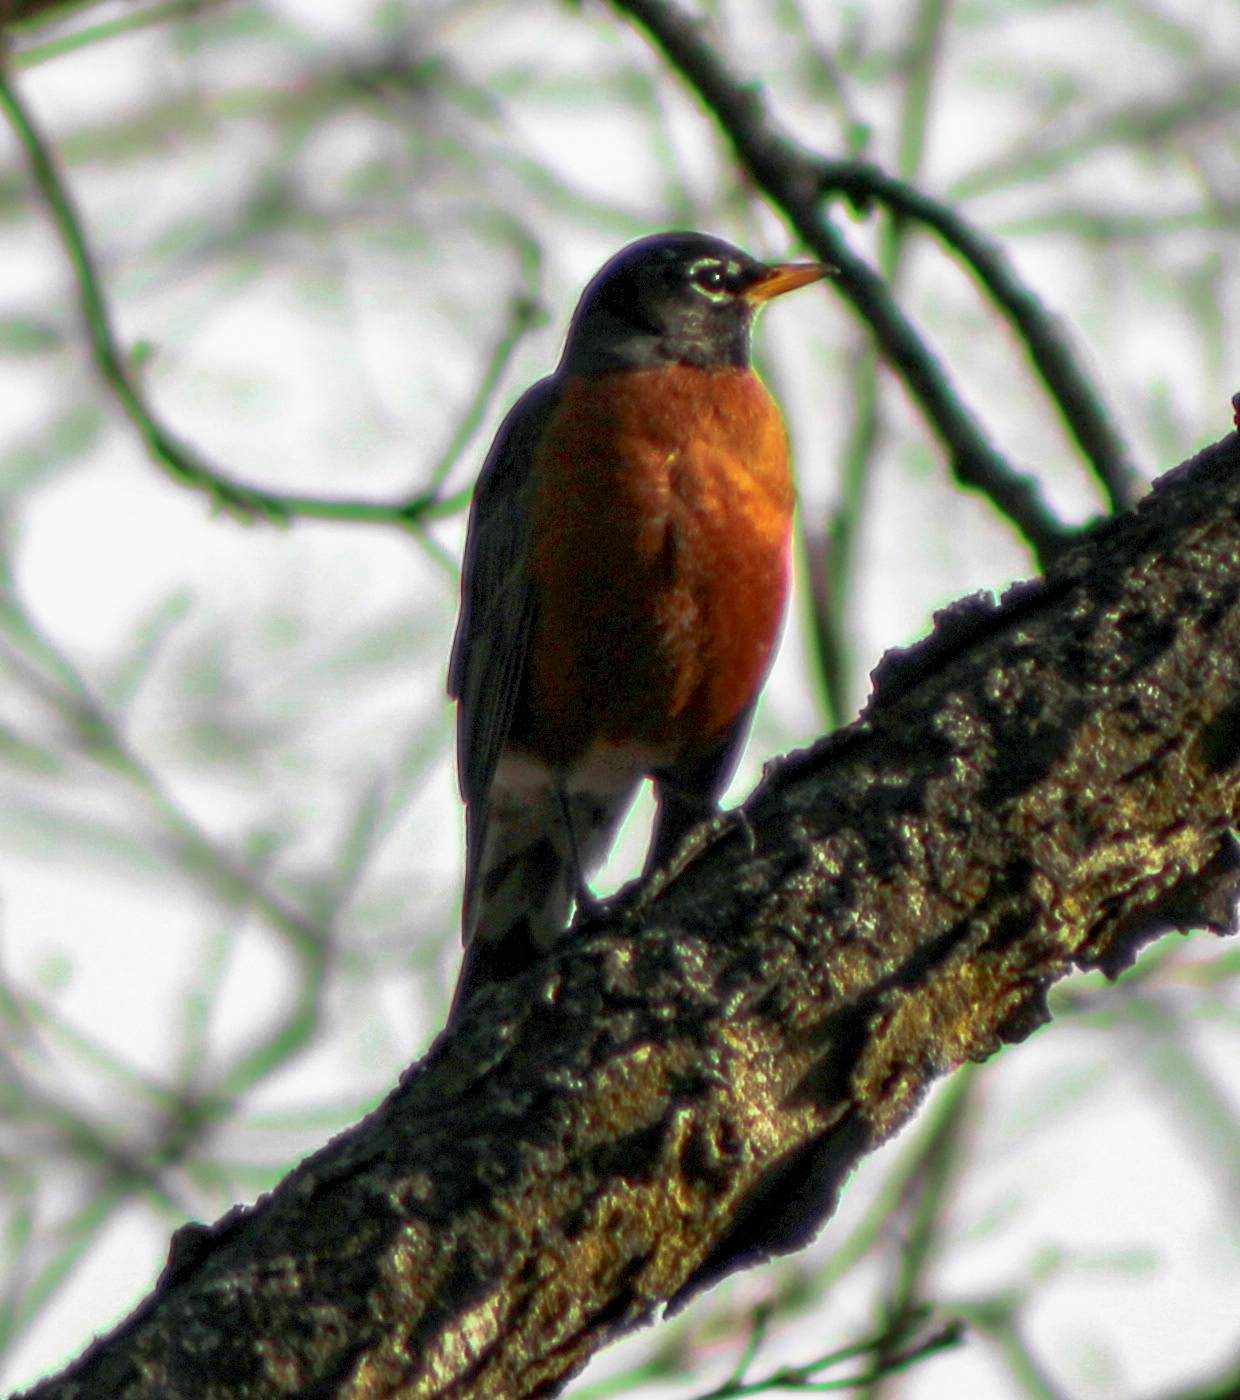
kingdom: Animalia
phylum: Chordata
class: Aves
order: Passeriformes
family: Turdidae
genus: Turdus
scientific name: Turdus migratorius
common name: American robin
